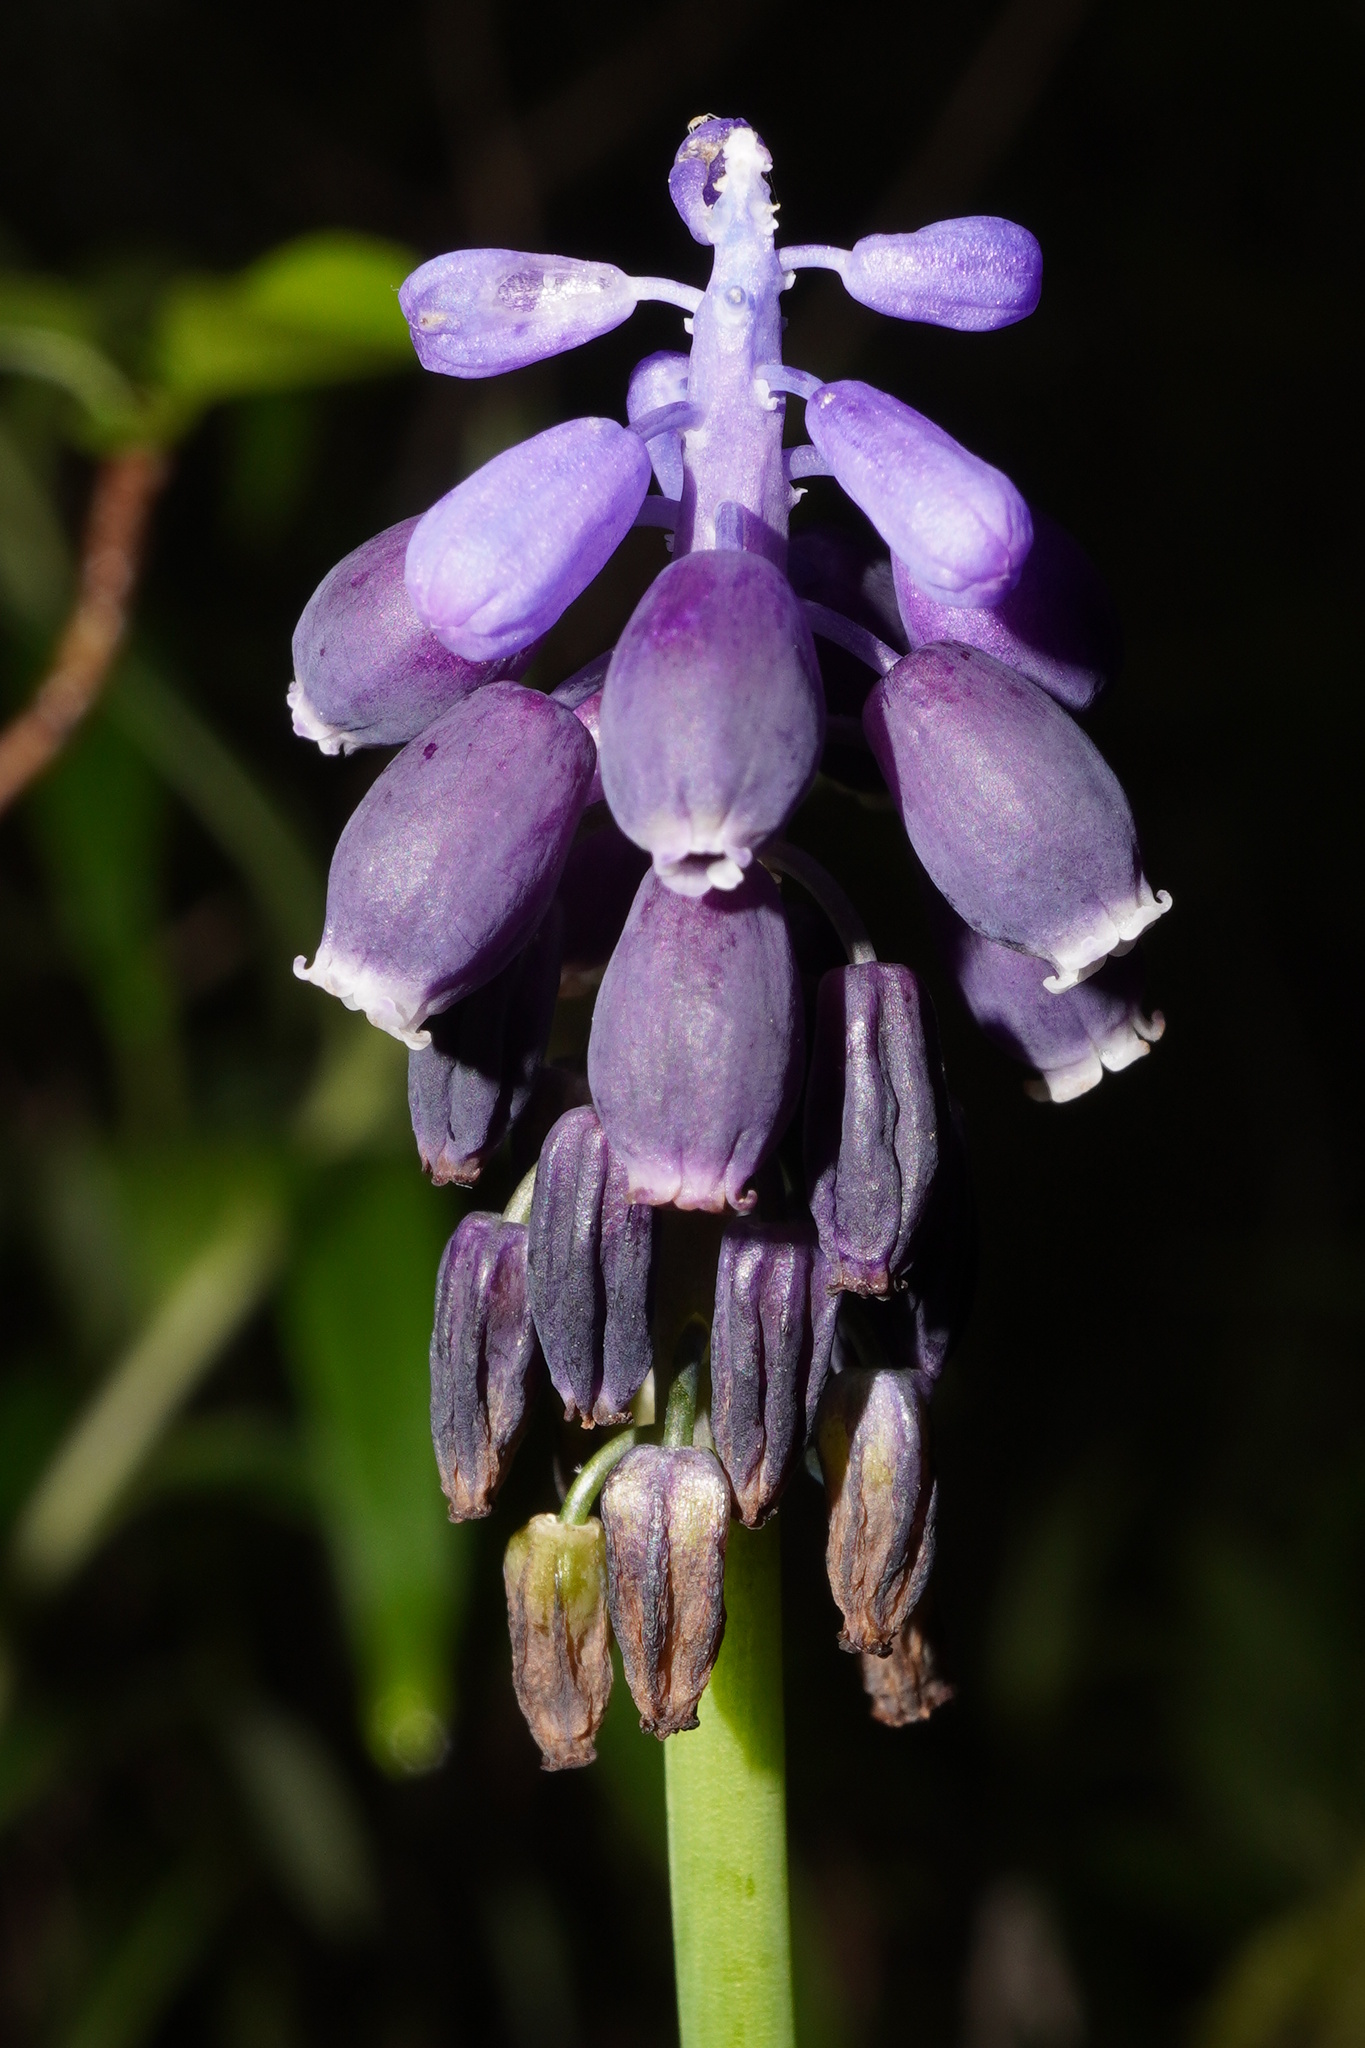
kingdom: Plantae
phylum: Tracheophyta
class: Liliopsida
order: Asparagales
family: Asparagaceae
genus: Muscari
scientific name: Muscari neglectum
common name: Grape-hyacinth
